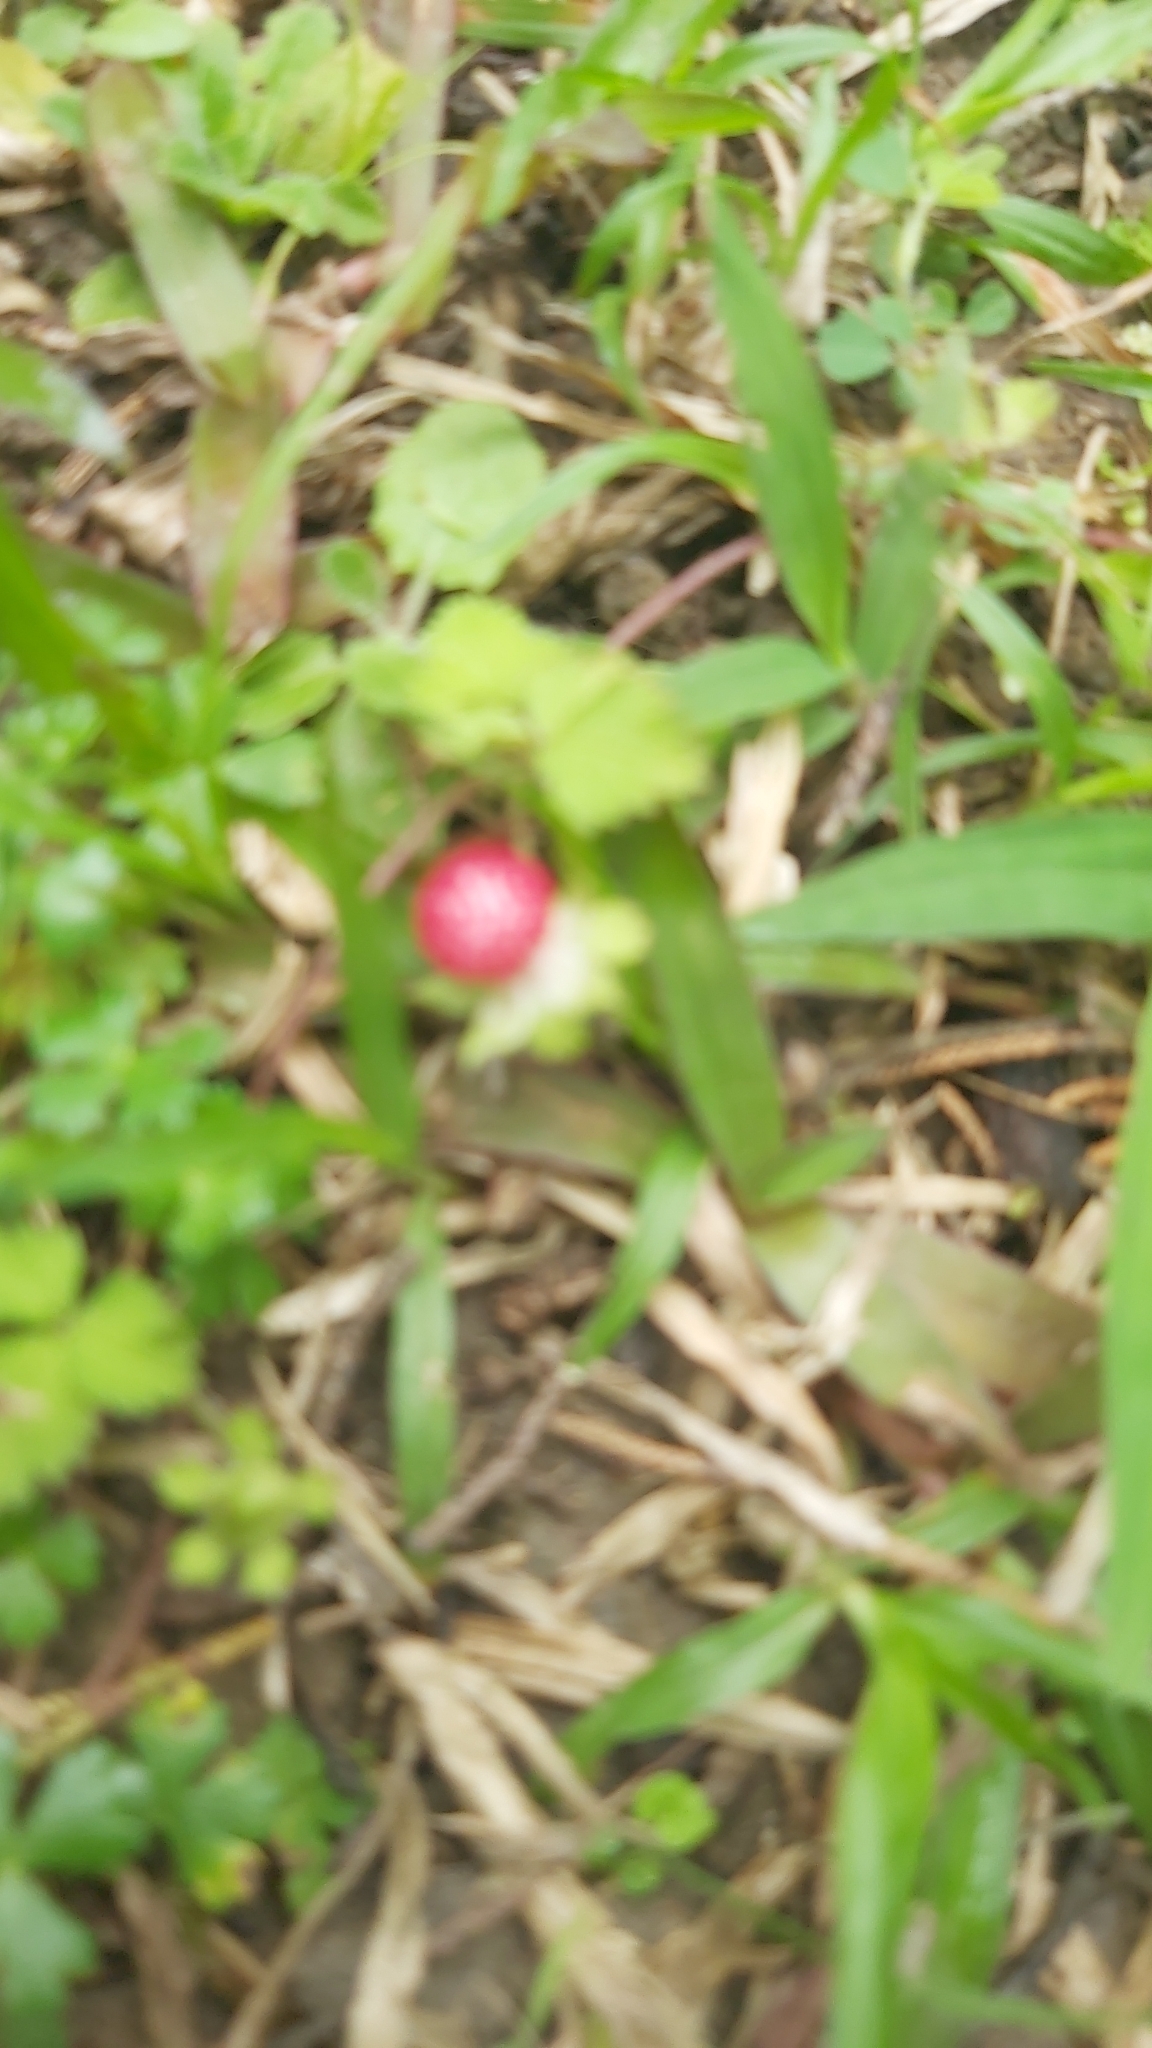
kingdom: Plantae
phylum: Tracheophyta
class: Magnoliopsida
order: Rosales
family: Rosaceae
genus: Potentilla
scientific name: Potentilla wallichiana
